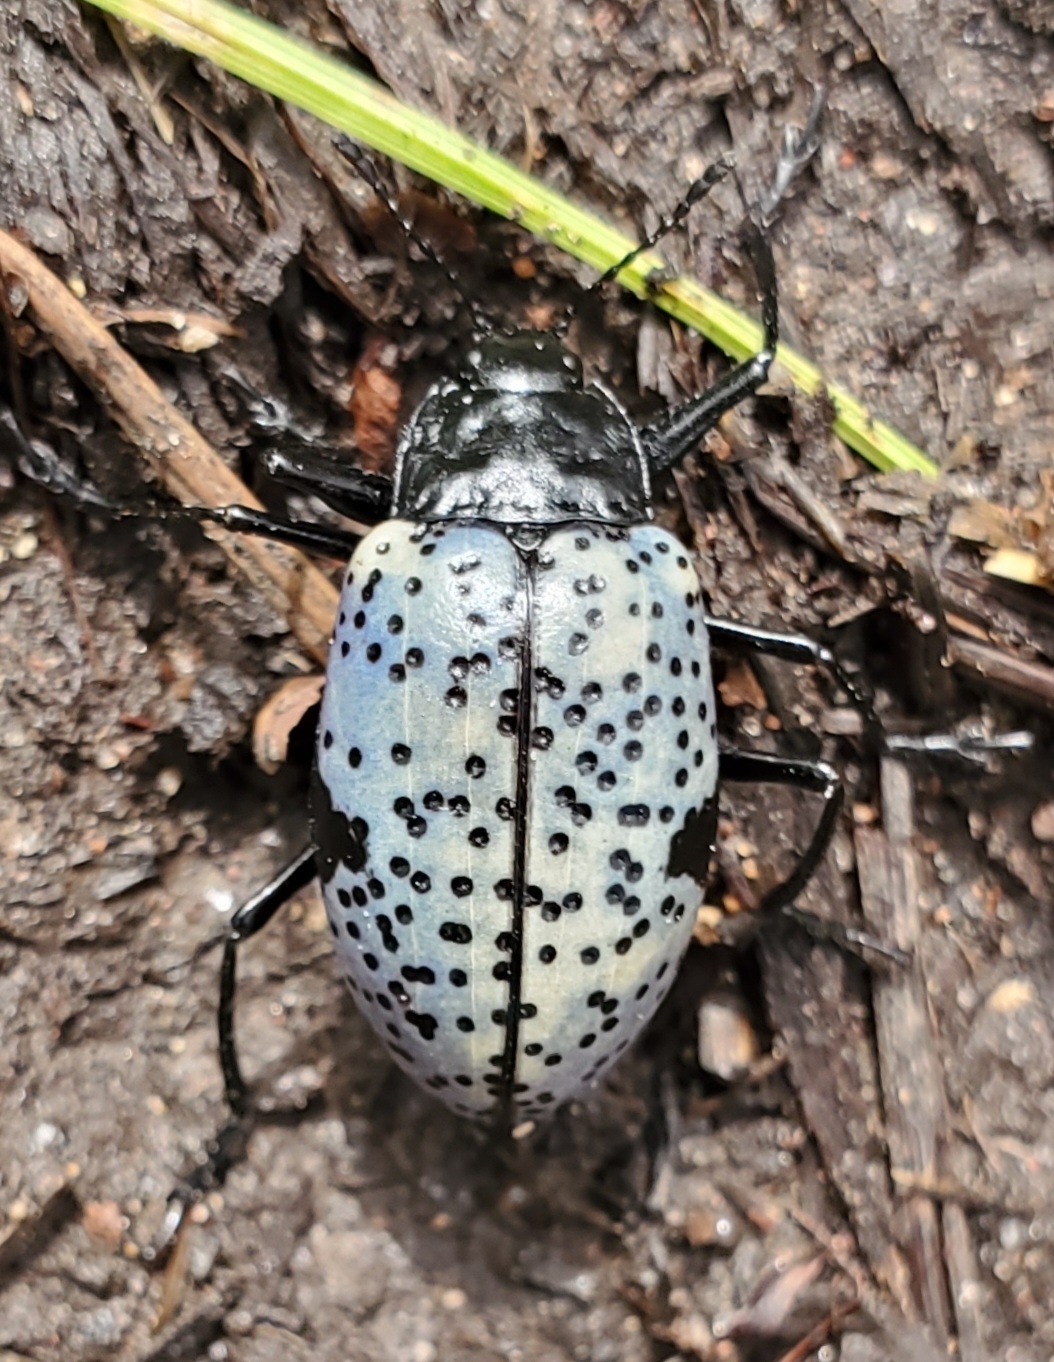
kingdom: Animalia
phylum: Arthropoda
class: Insecta
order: Coleoptera
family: Erotylidae
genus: Gibbifer
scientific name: Gibbifer californicus
